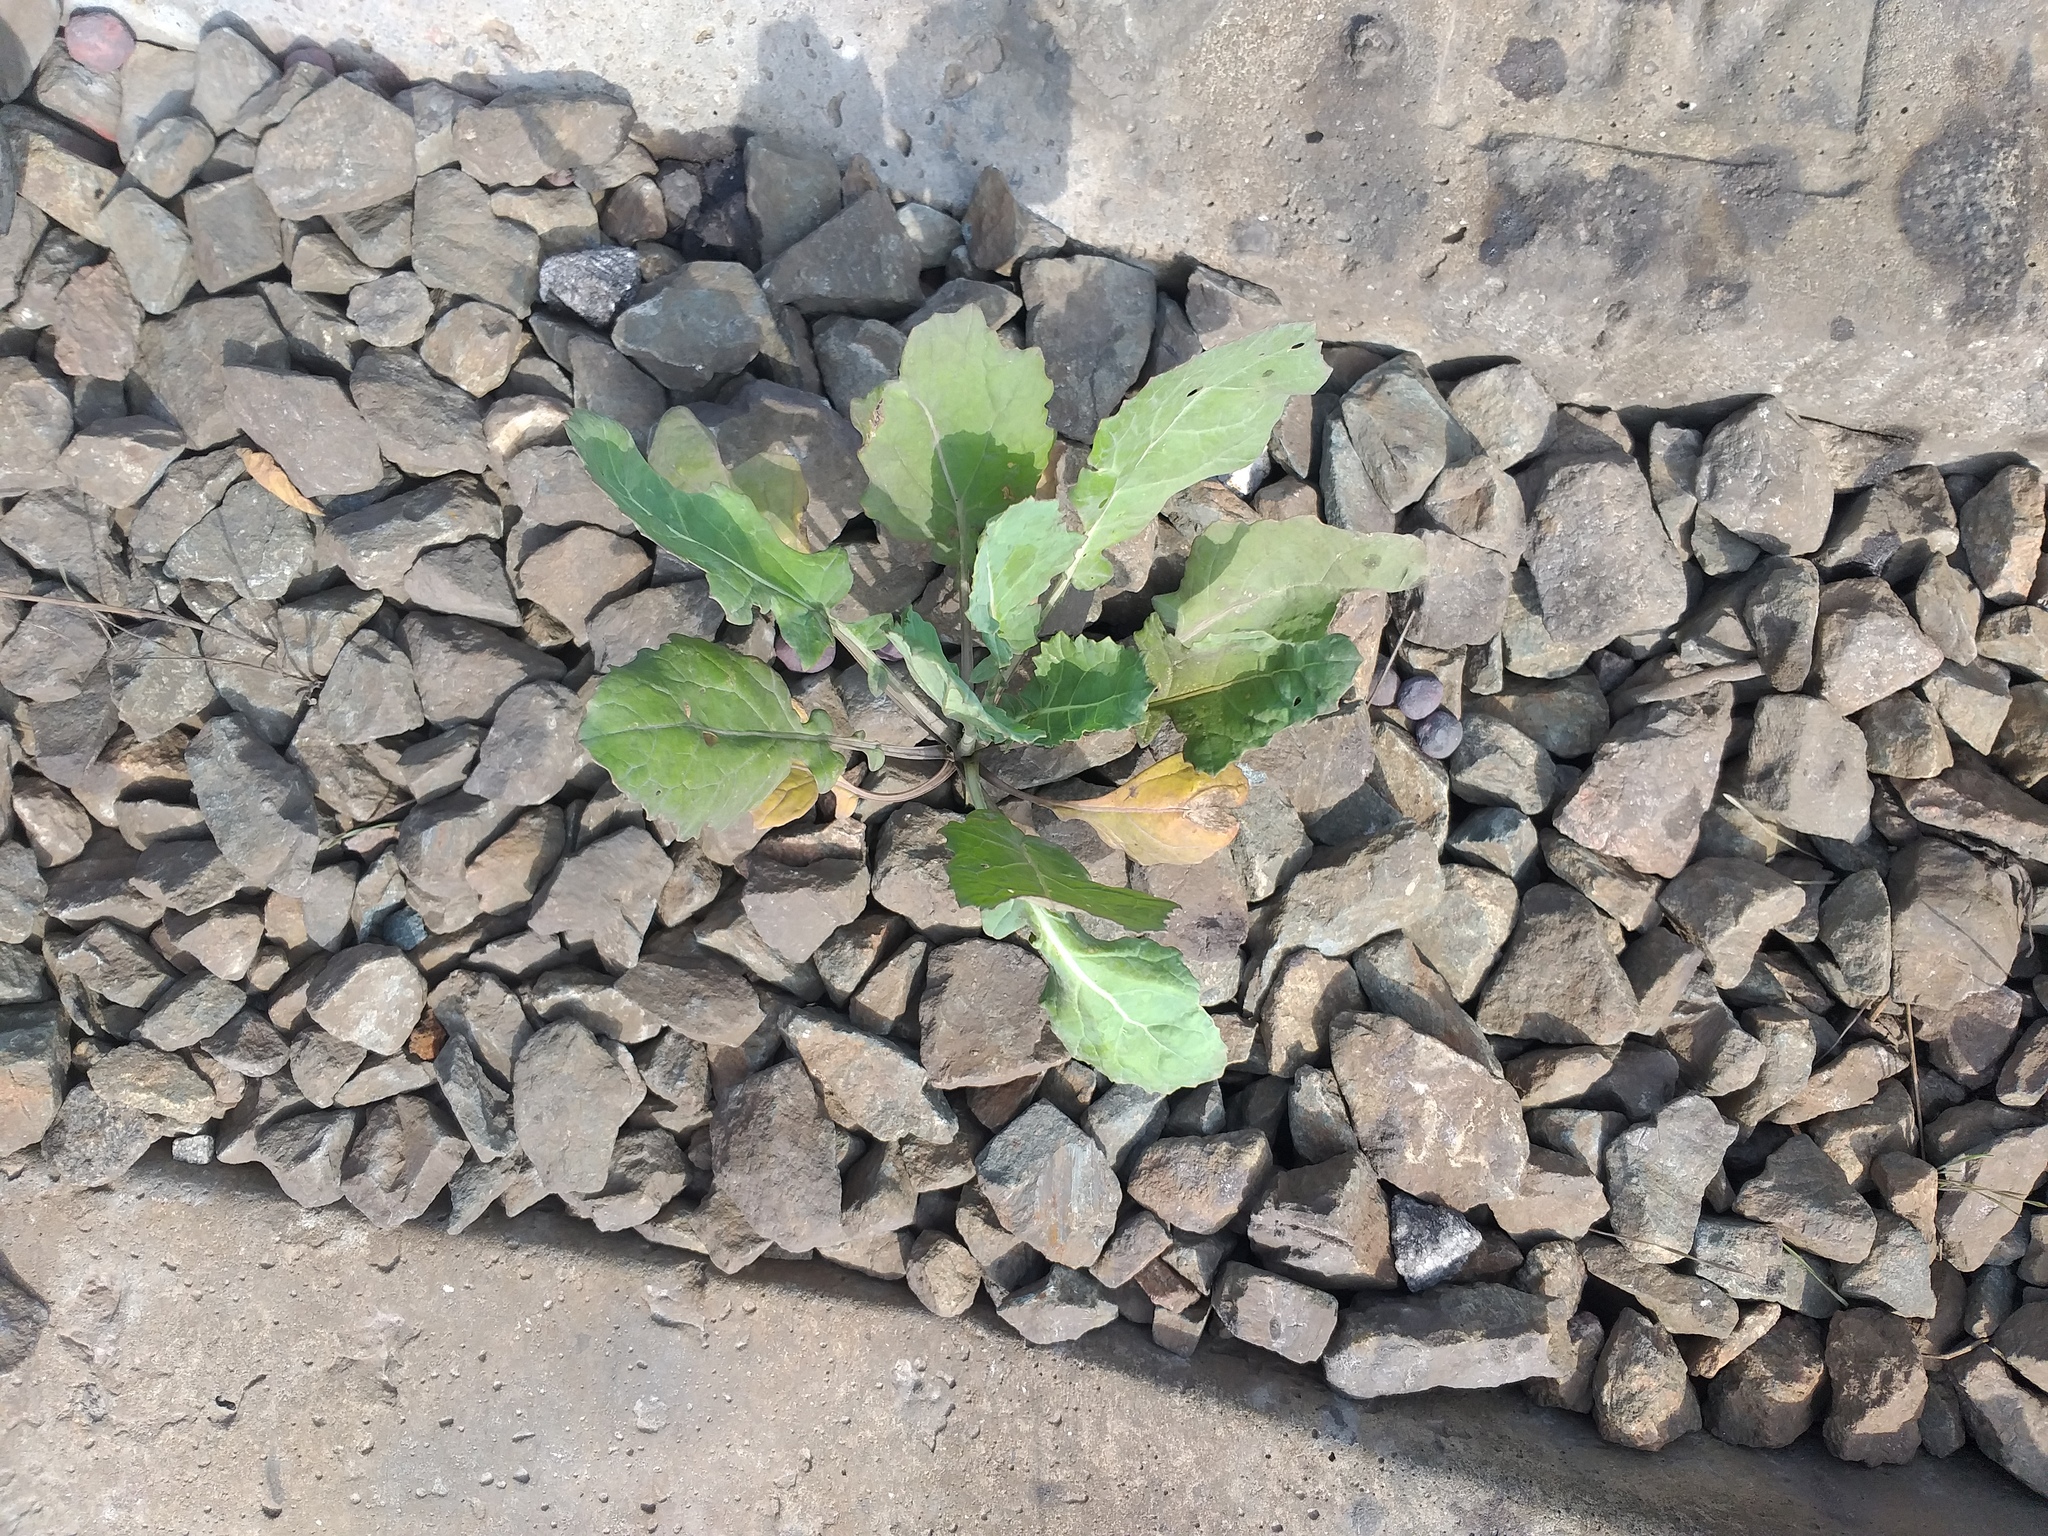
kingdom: Plantae
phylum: Tracheophyta
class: Magnoliopsida
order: Brassicales
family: Brassicaceae
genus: Brassica
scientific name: Brassica napus
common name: Rape
